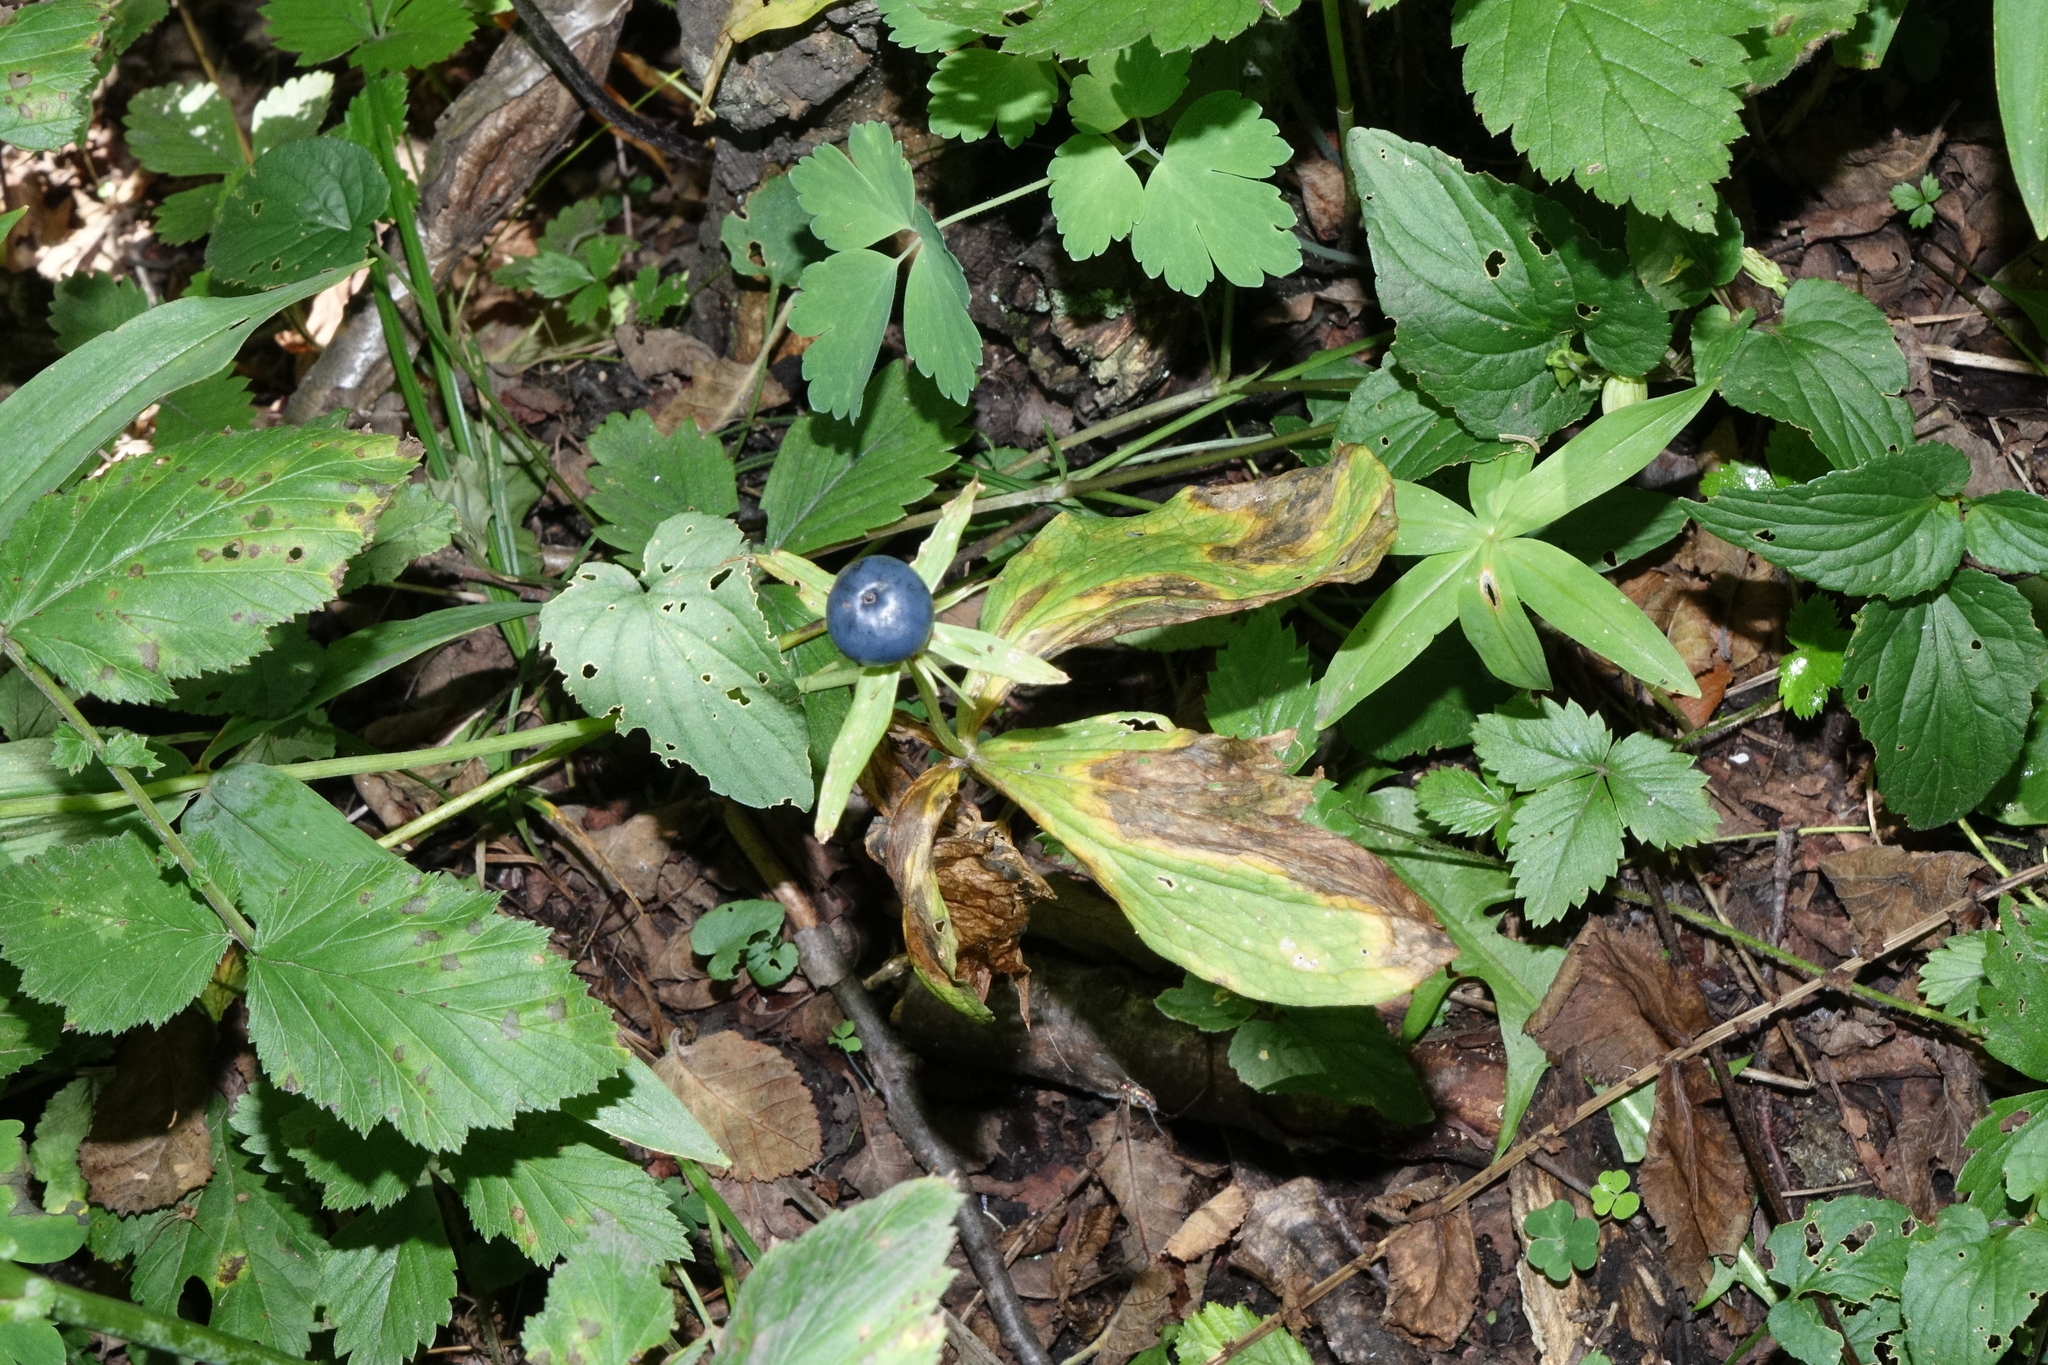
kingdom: Plantae
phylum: Tracheophyta
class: Liliopsida
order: Liliales
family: Melanthiaceae
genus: Paris
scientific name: Paris quadrifolia
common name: Herb-paris
